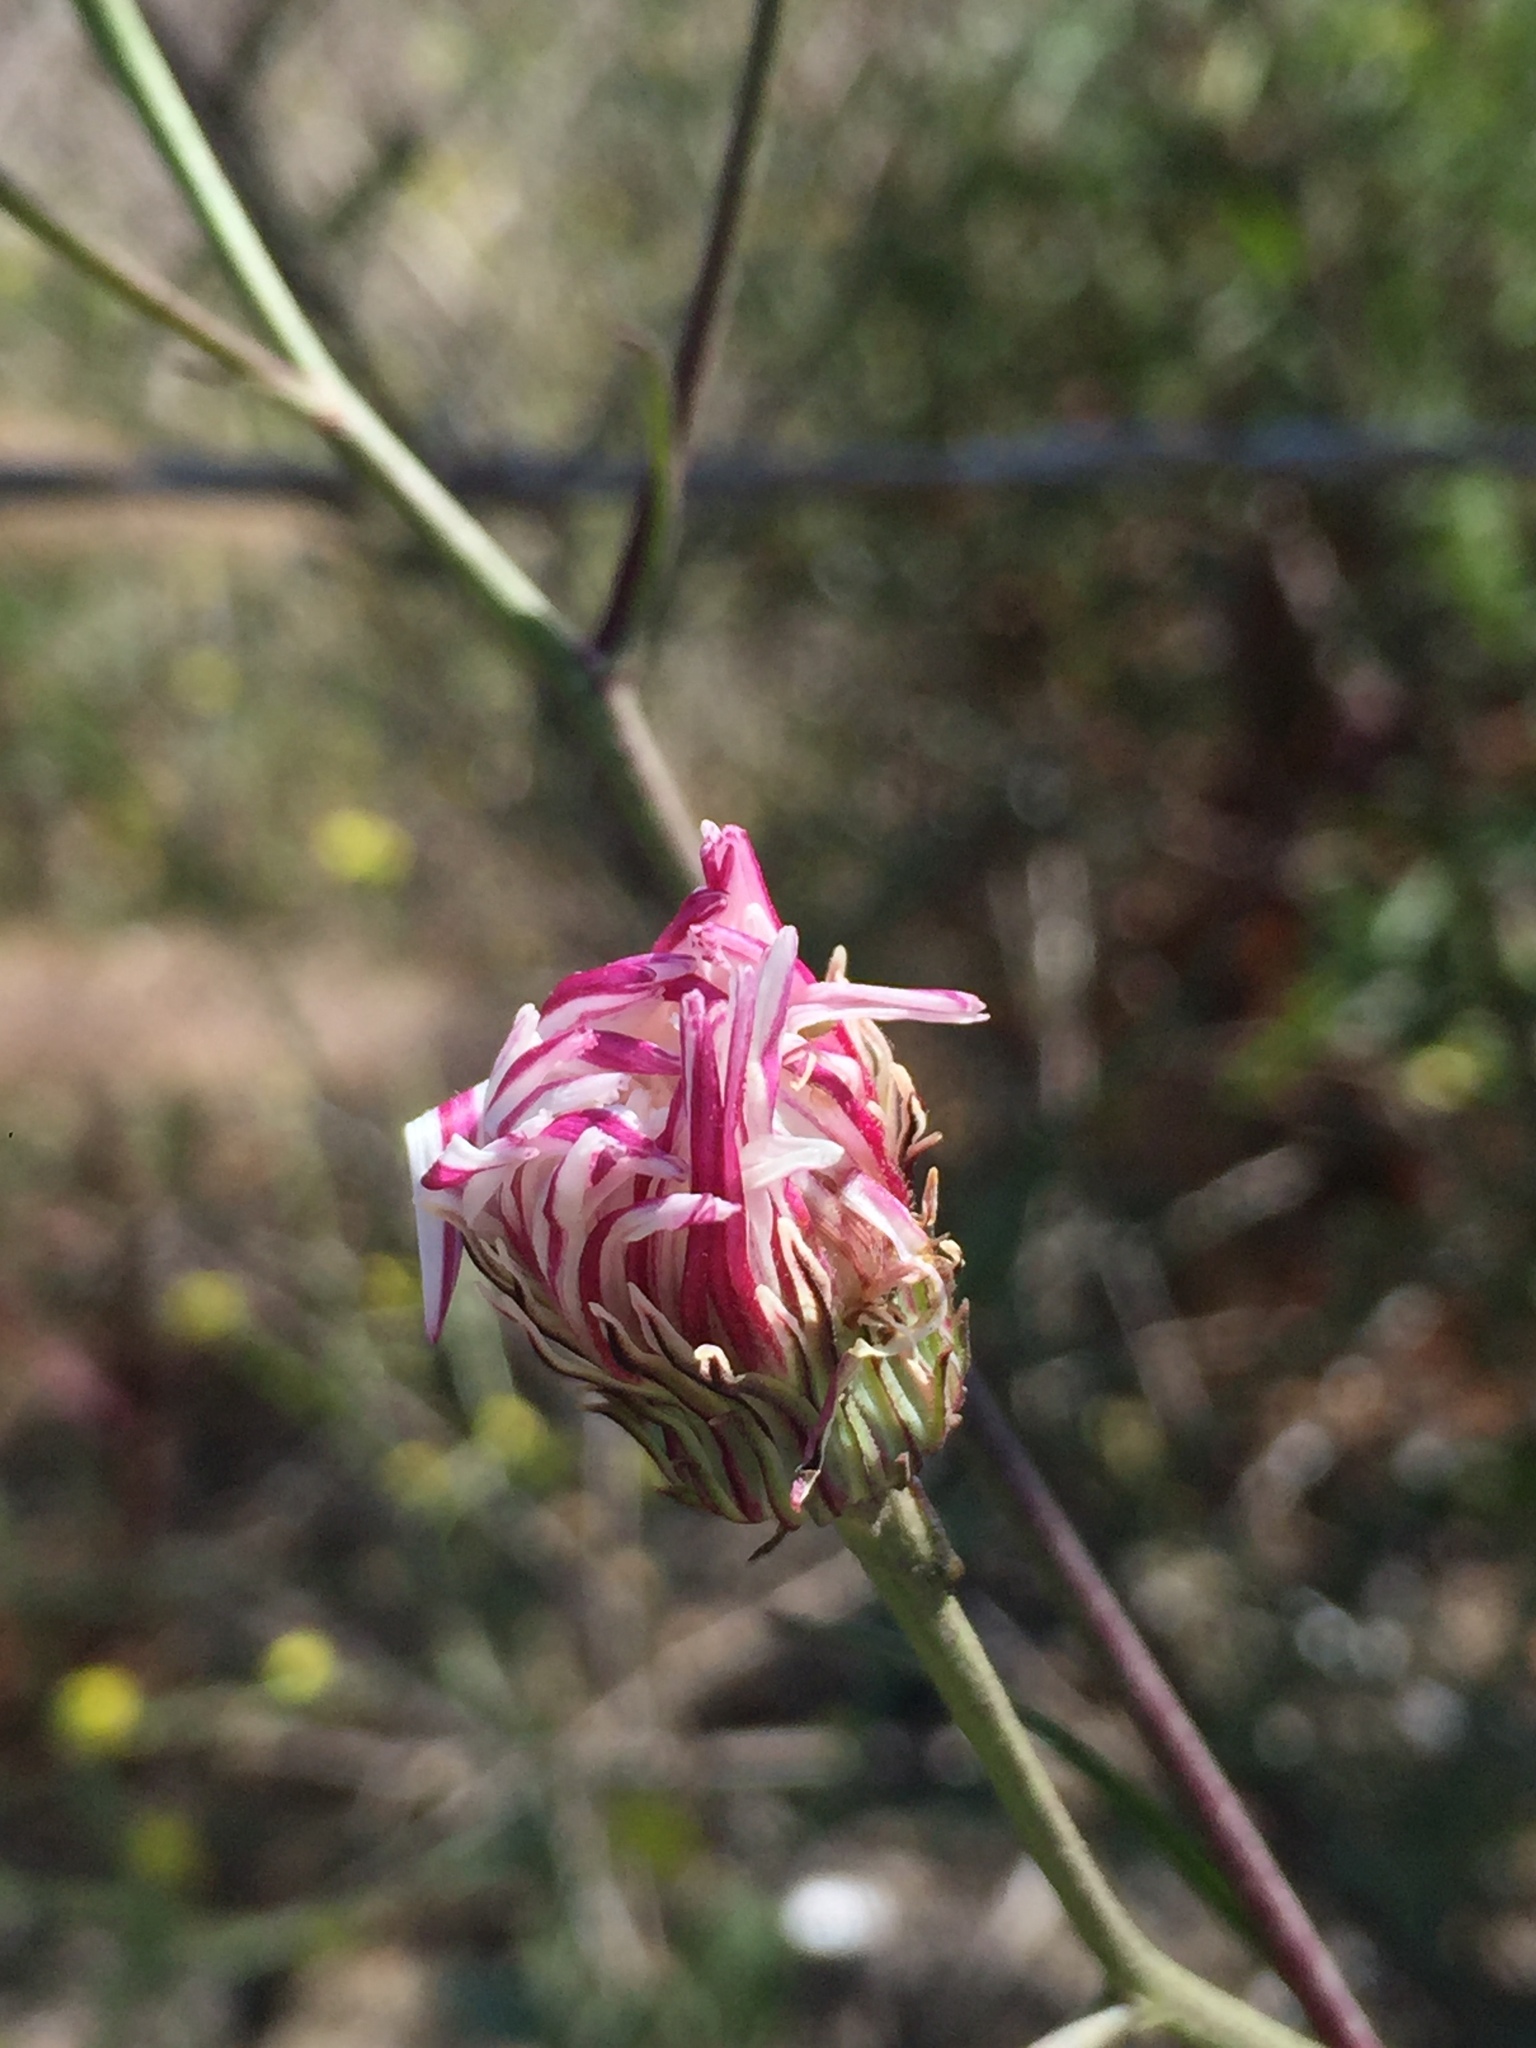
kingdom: Plantae
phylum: Tracheophyta
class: Magnoliopsida
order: Asterales
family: Asteraceae
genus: Malacothrix
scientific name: Malacothrix saxatilis
